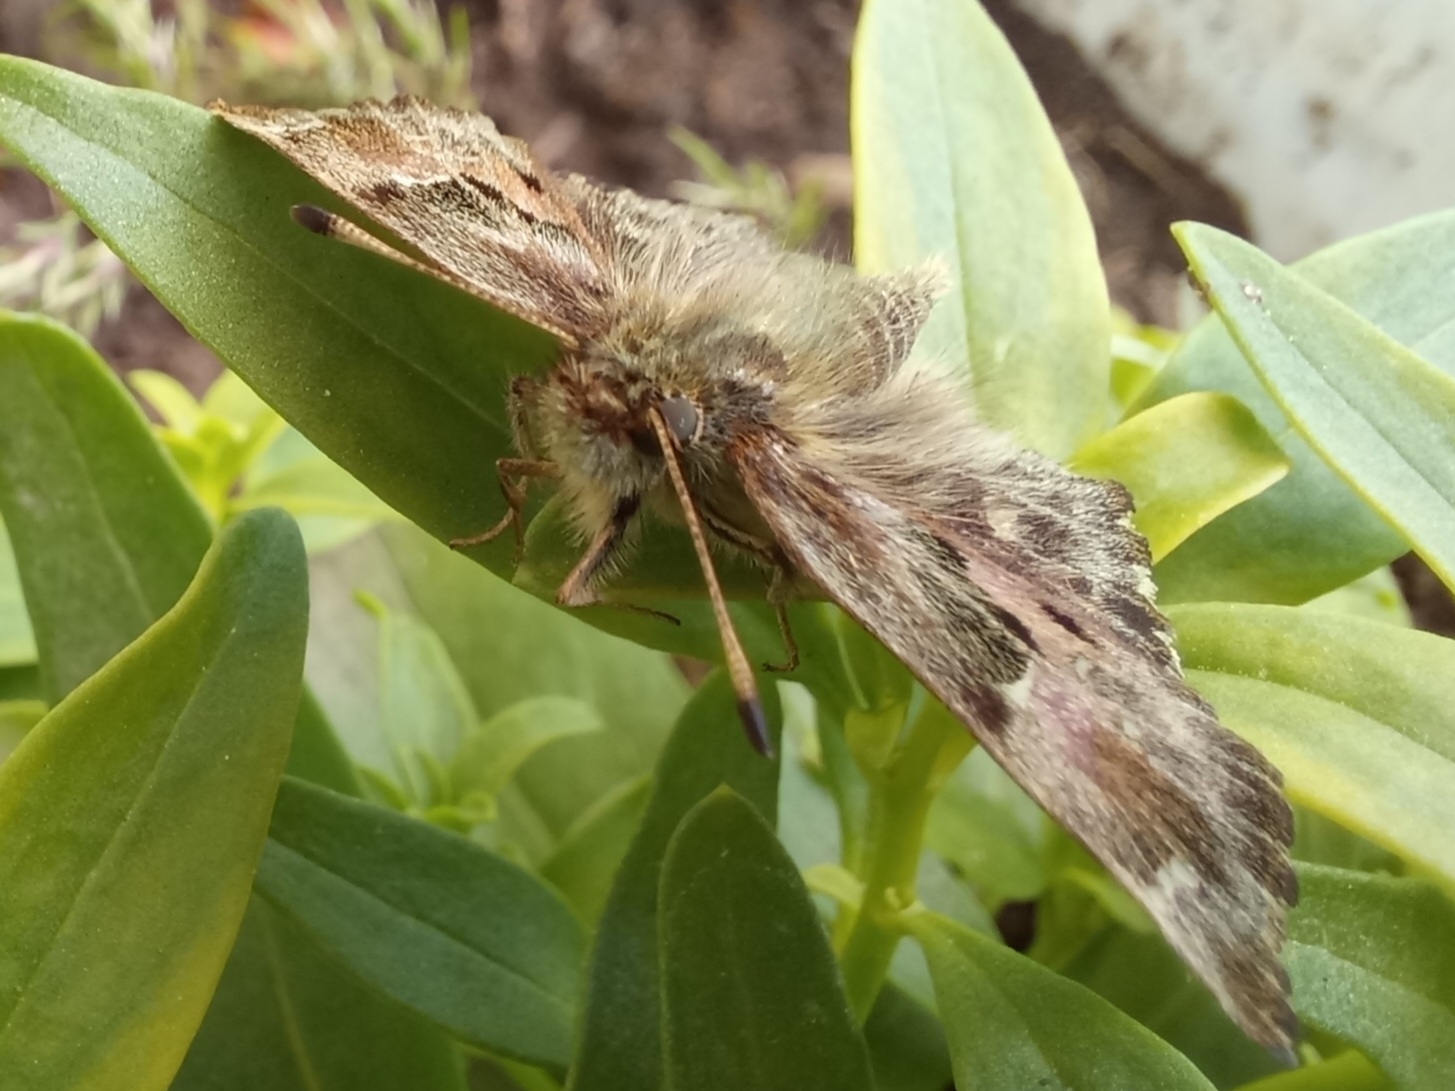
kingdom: Animalia
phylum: Arthropoda
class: Insecta
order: Lepidoptera
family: Hesperiidae
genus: Carcharodus
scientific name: Carcharodus alceae
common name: Mallow skipper
